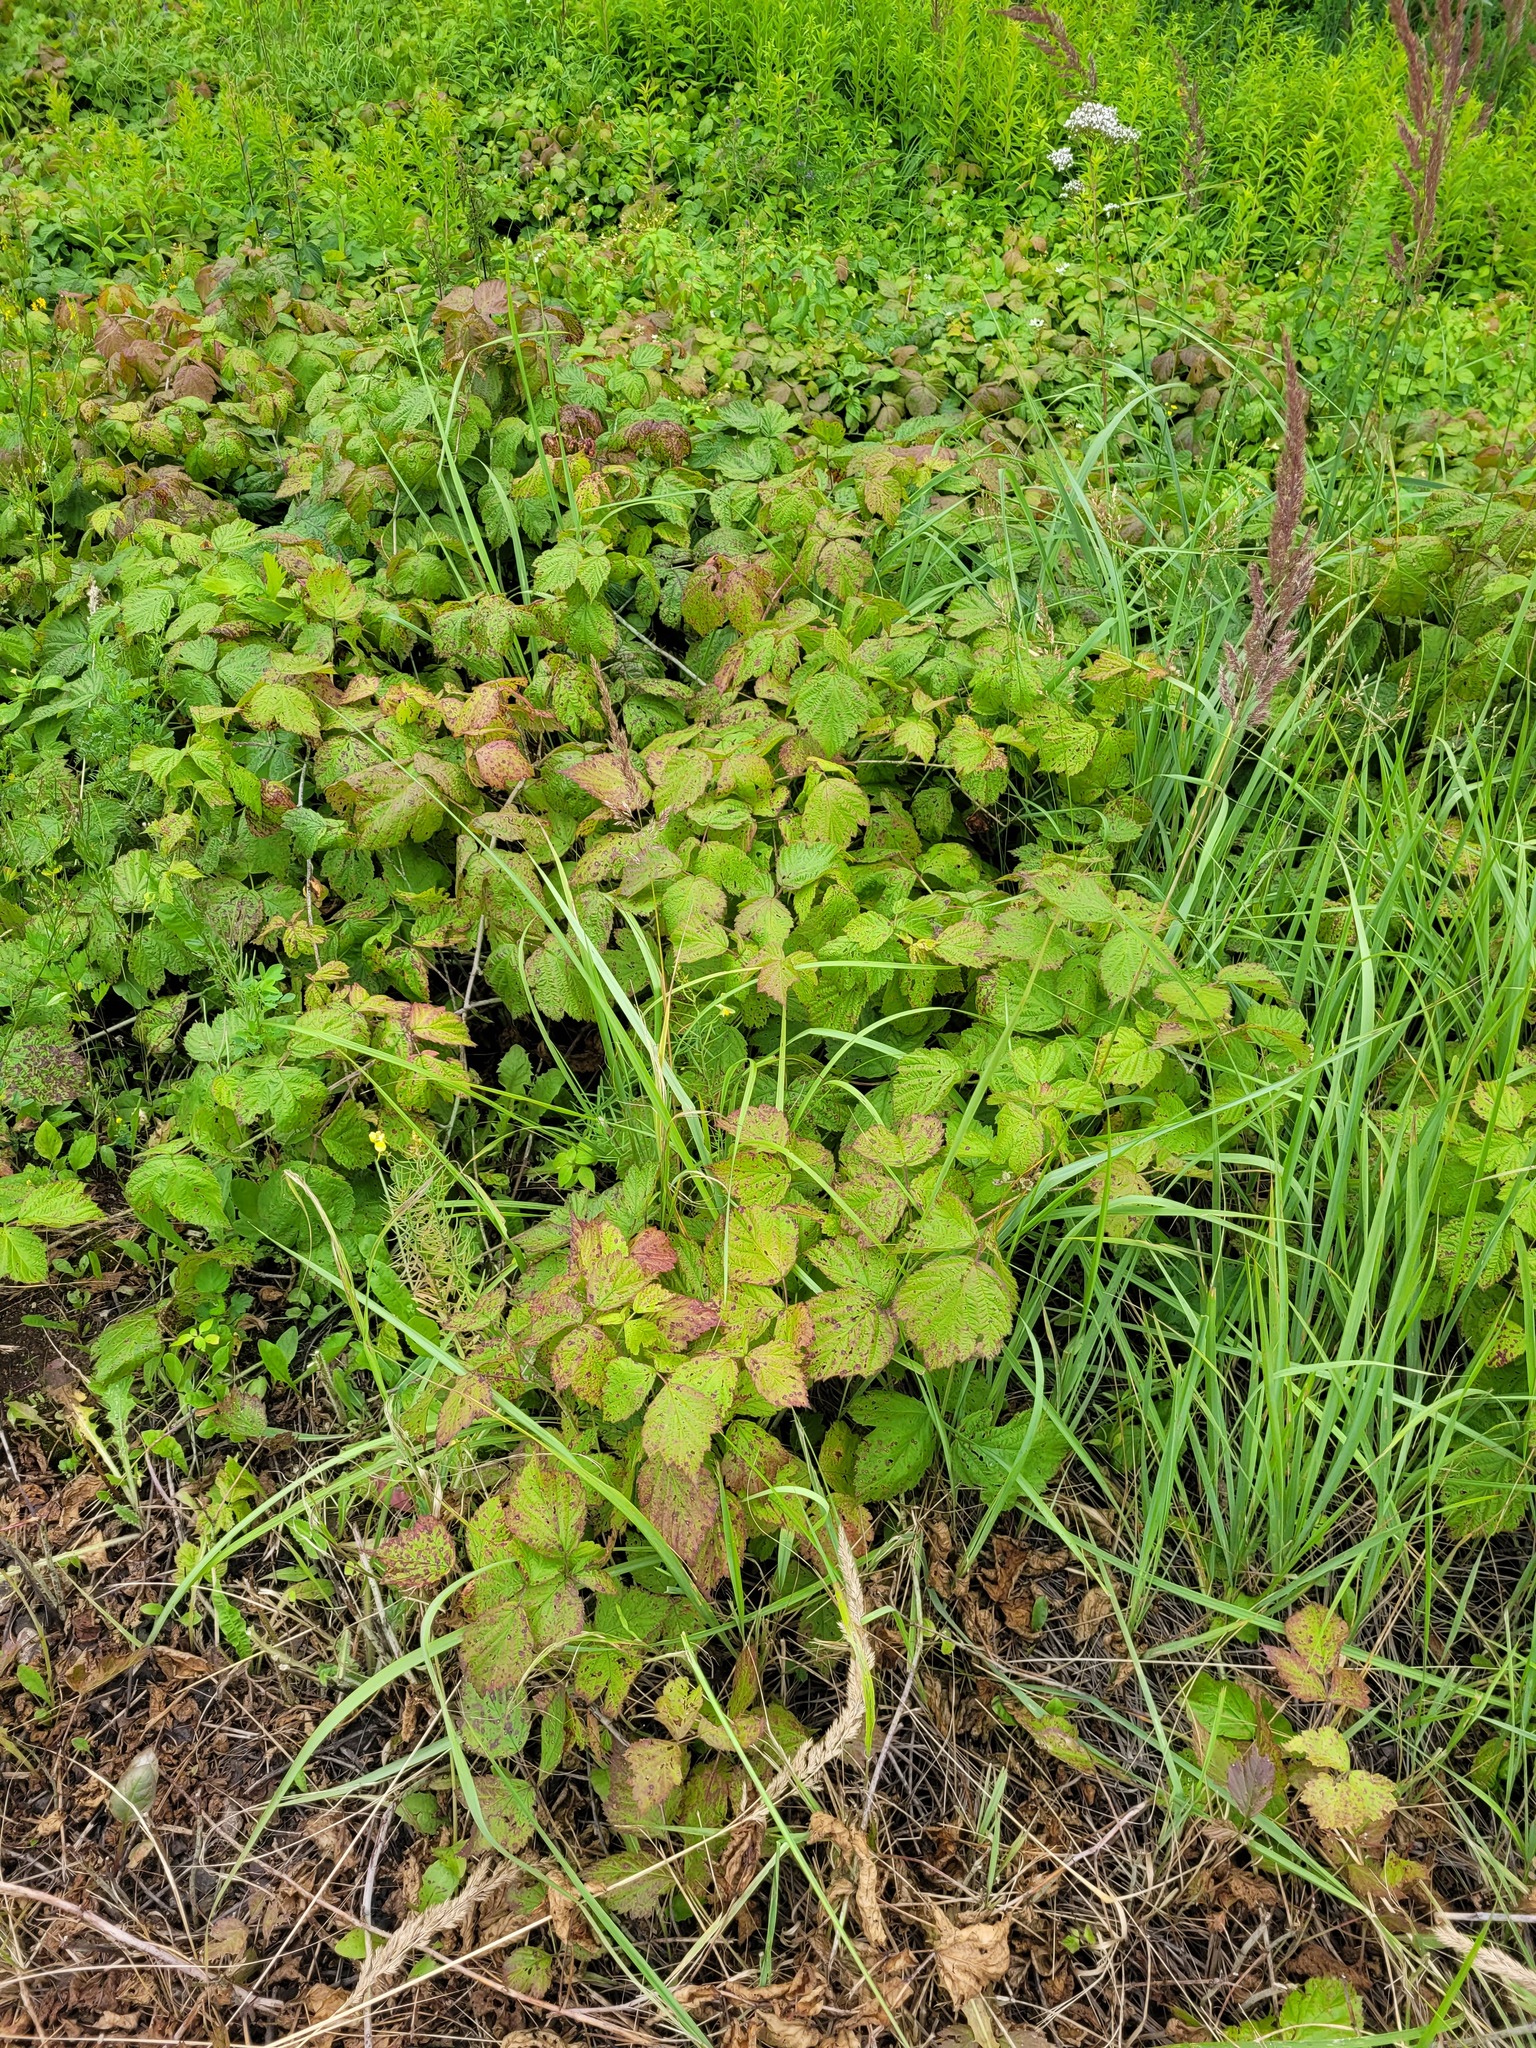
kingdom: Plantae
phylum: Tracheophyta
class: Magnoliopsida
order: Rosales
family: Rosaceae
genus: Rubus
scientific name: Rubus caesius
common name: Dewberry
